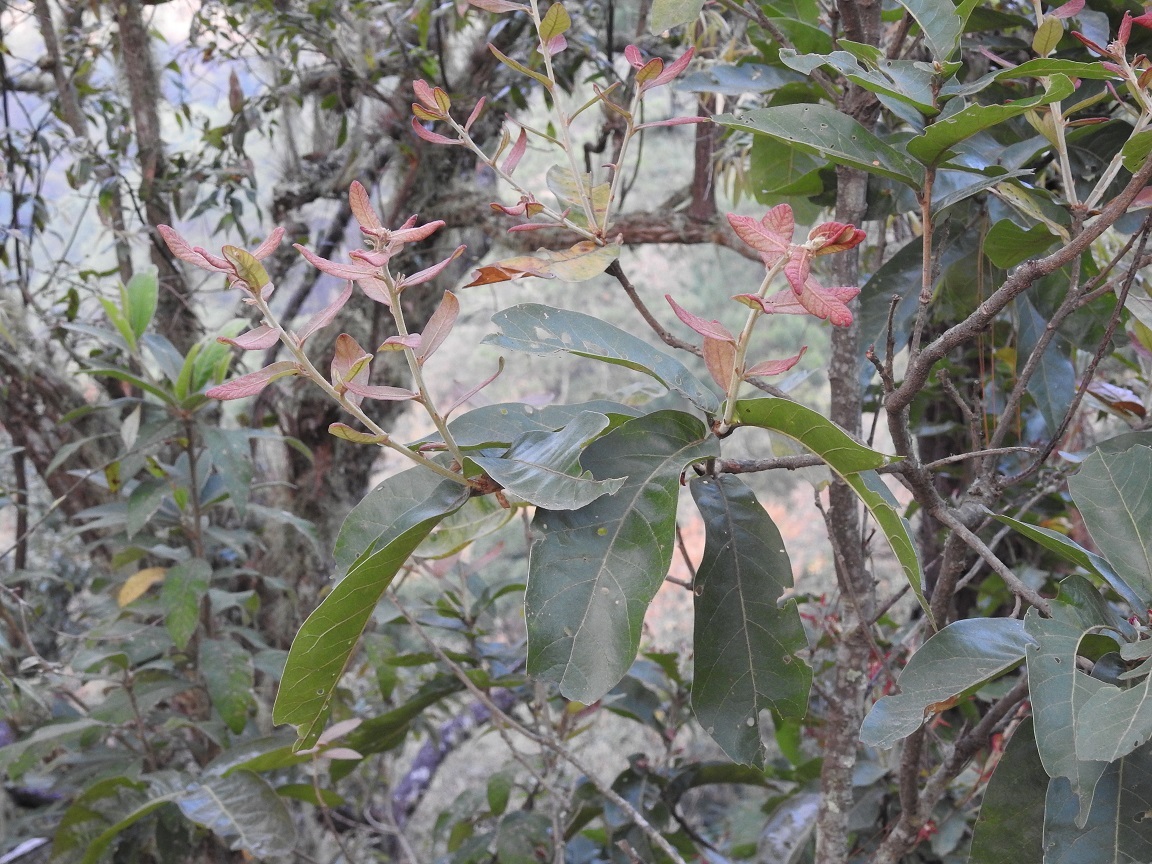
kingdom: Plantae
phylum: Tracheophyta
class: Magnoliopsida
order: Fagales
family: Fagaceae
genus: Quercus
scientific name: Quercus sapotifolia
